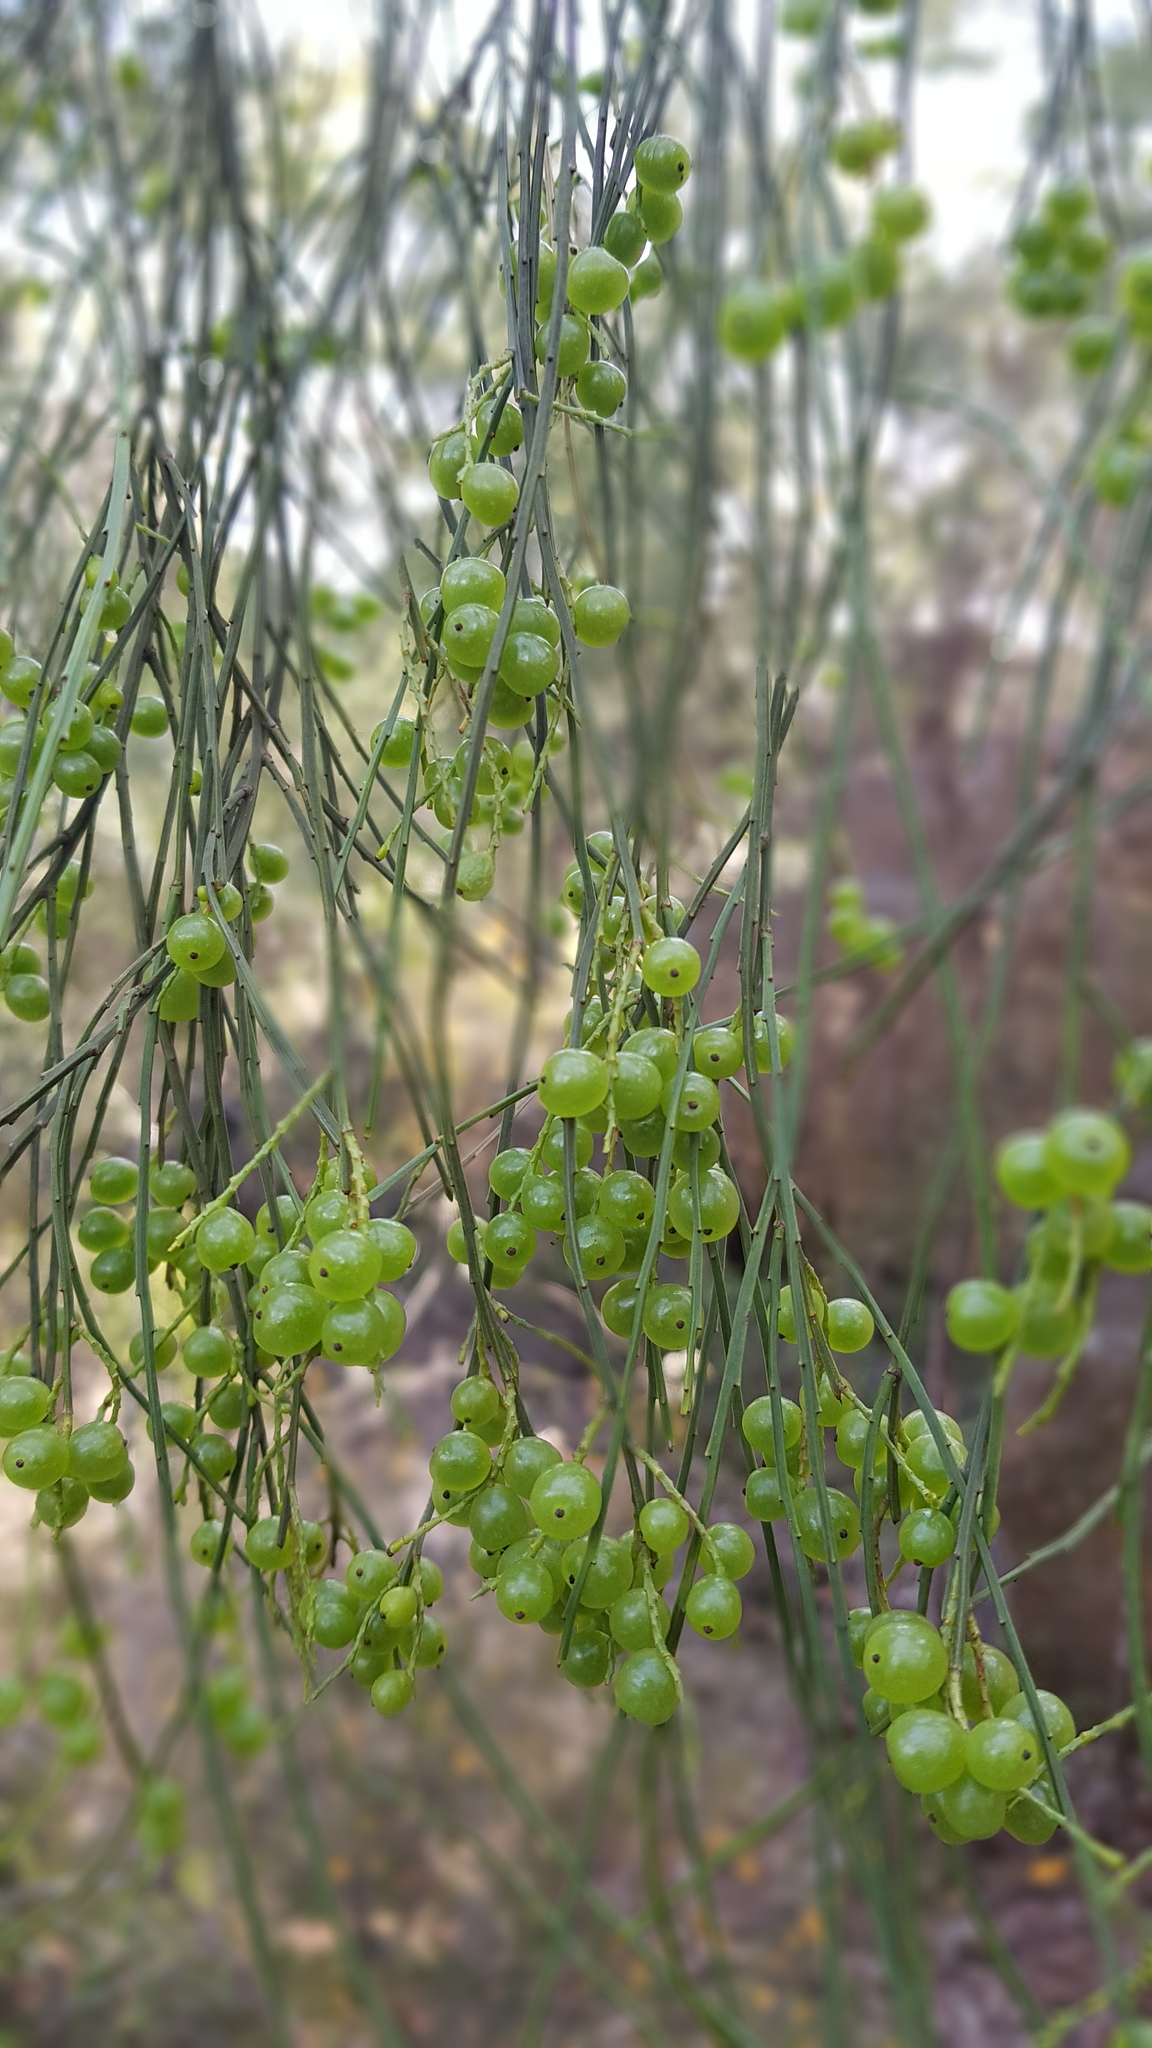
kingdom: Plantae
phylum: Tracheophyta
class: Magnoliopsida
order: Santalales
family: Amphorogynaceae
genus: Leptomeria
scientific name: Leptomeria acida
